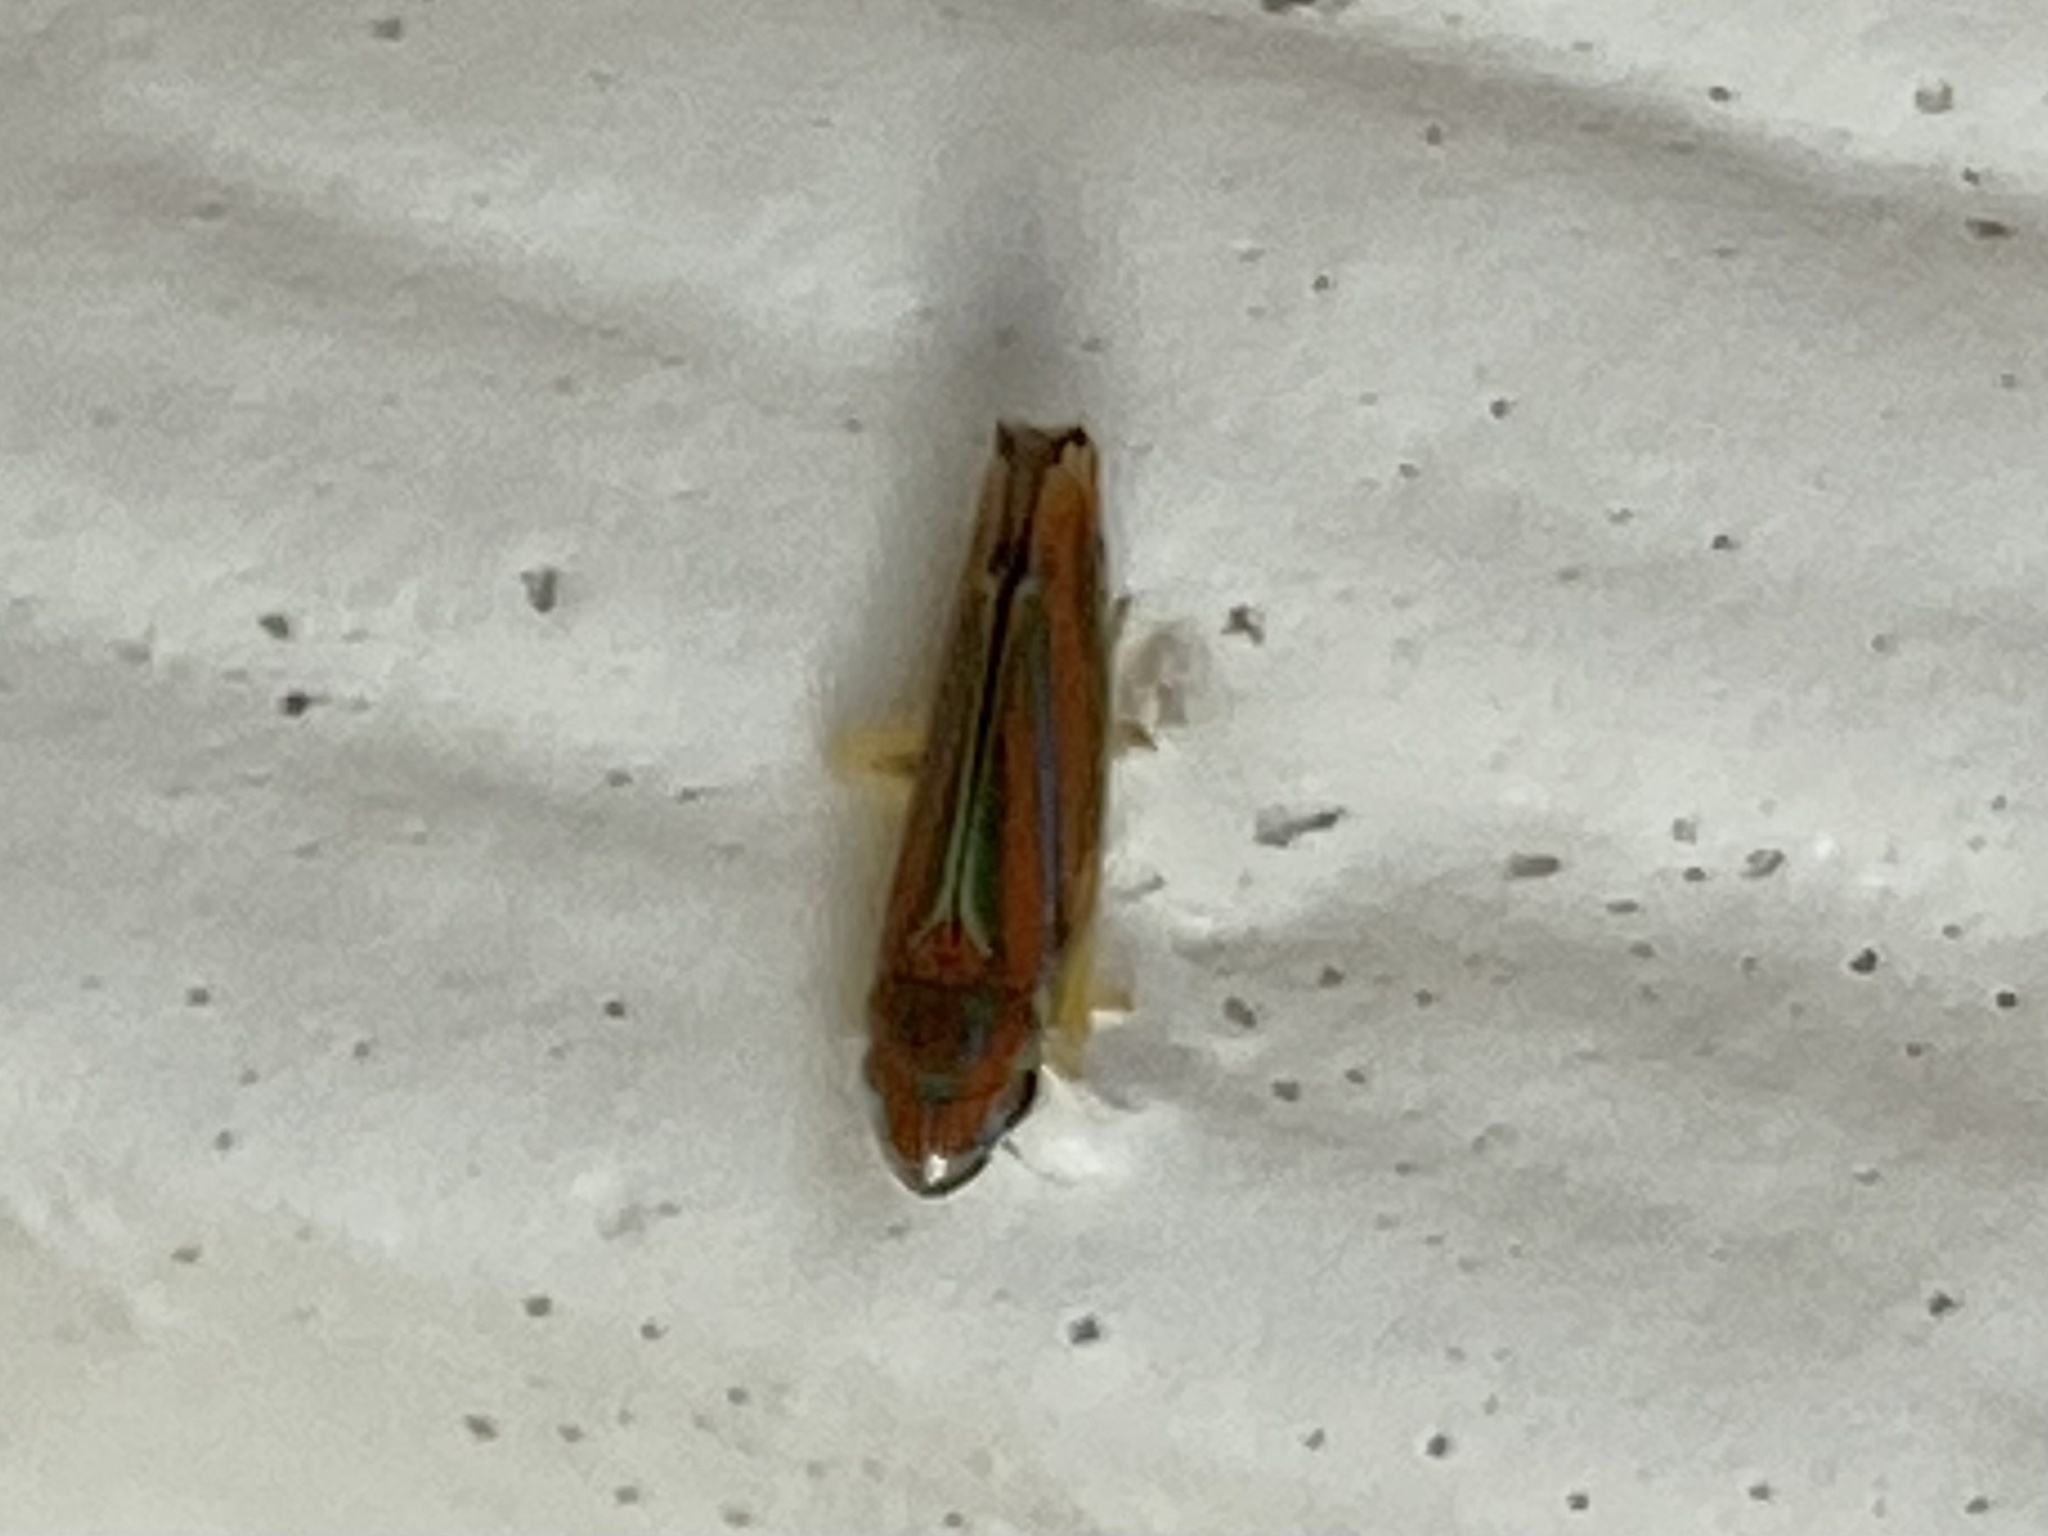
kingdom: Animalia
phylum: Arthropoda
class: Insecta
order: Hemiptera
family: Cicadellidae
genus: Graphocephala
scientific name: Graphocephala versuta
